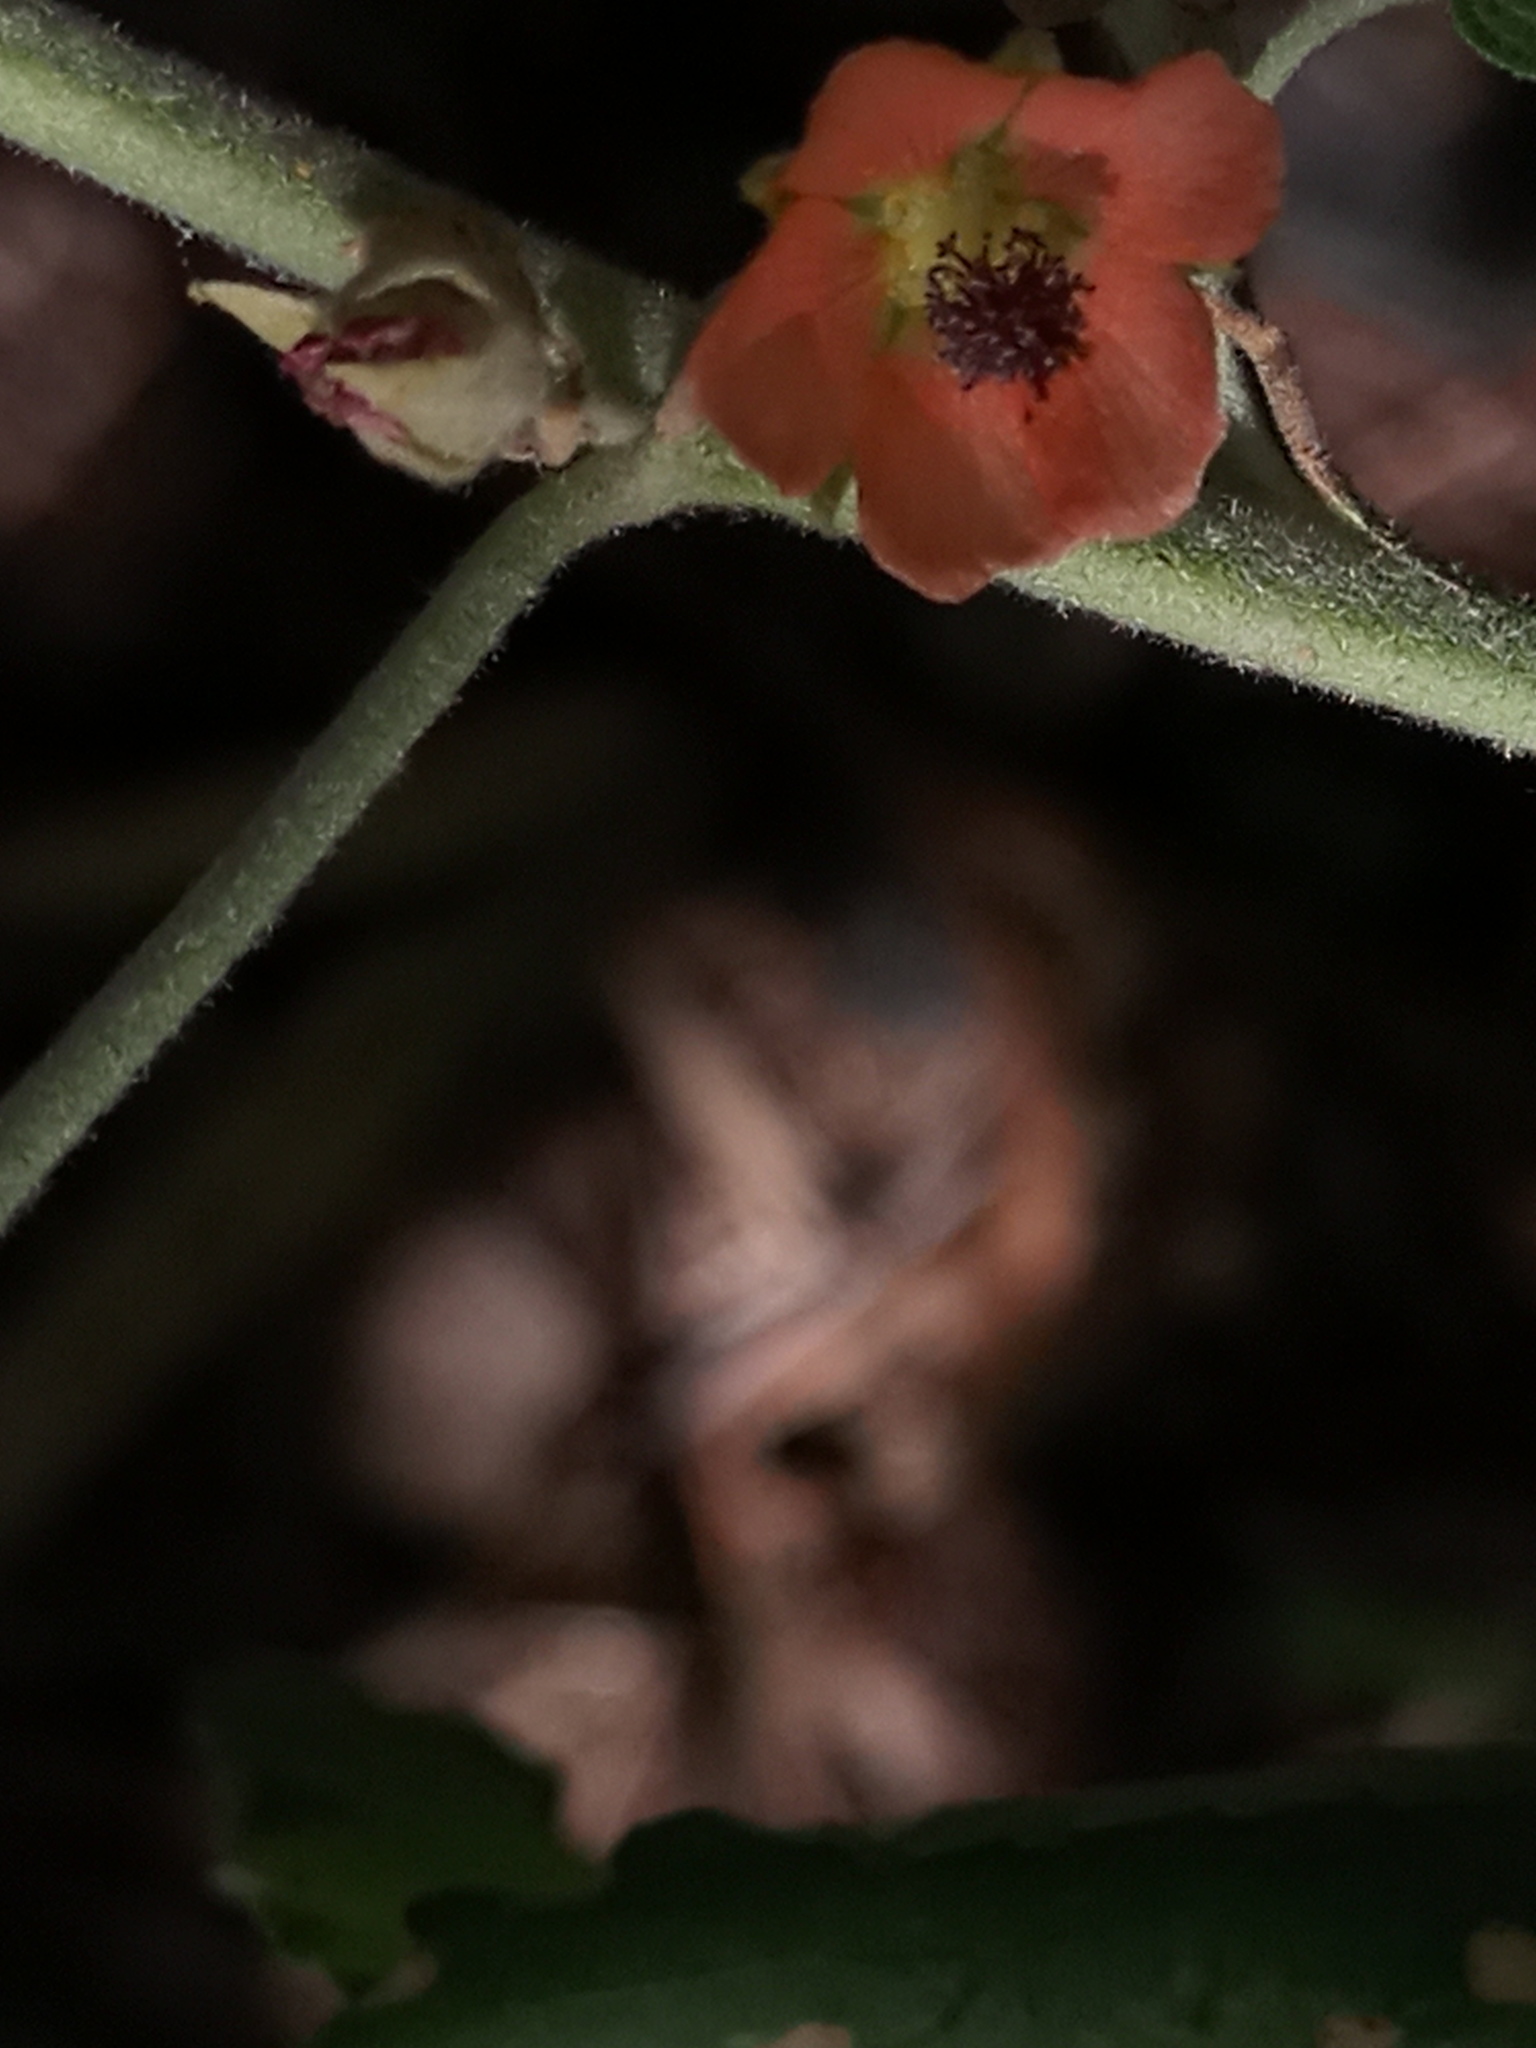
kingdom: Plantae
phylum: Tracheophyta
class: Magnoliopsida
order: Malvales
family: Malvaceae
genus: Sphaeralcea
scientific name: Sphaeralcea bonariensis
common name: Latin globemallow
